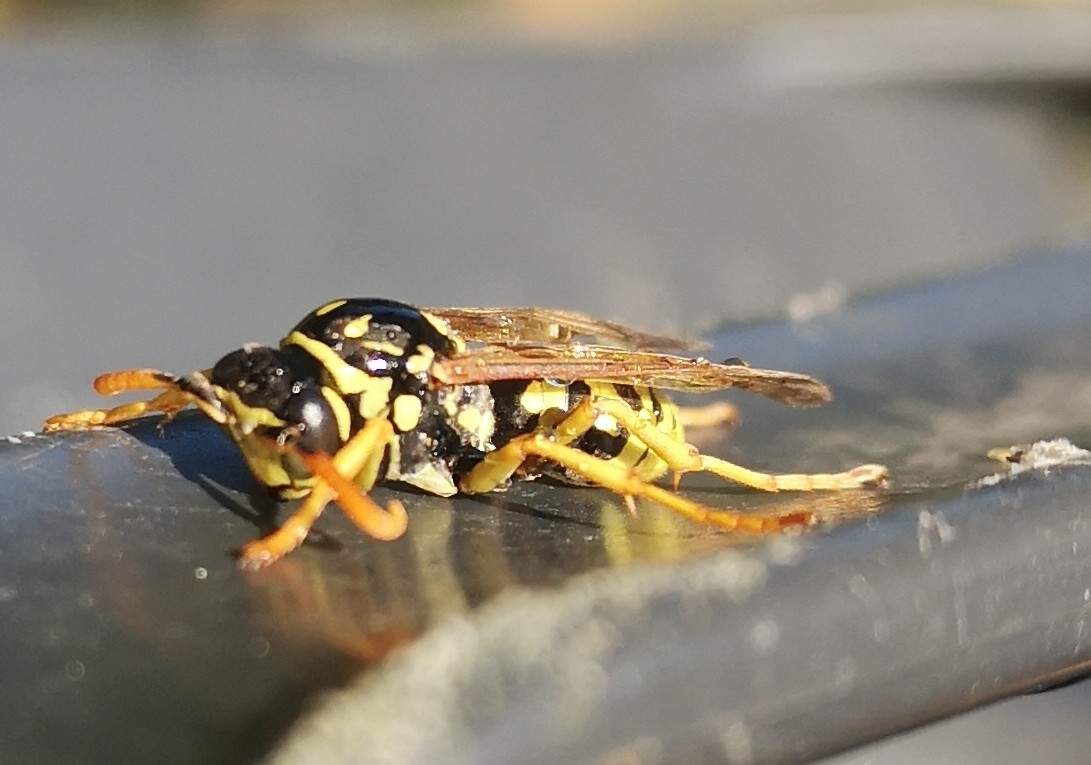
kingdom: Animalia
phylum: Arthropoda
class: Insecta
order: Hymenoptera
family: Eumenidae
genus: Polistes
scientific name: Polistes dominula
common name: Paper wasp
